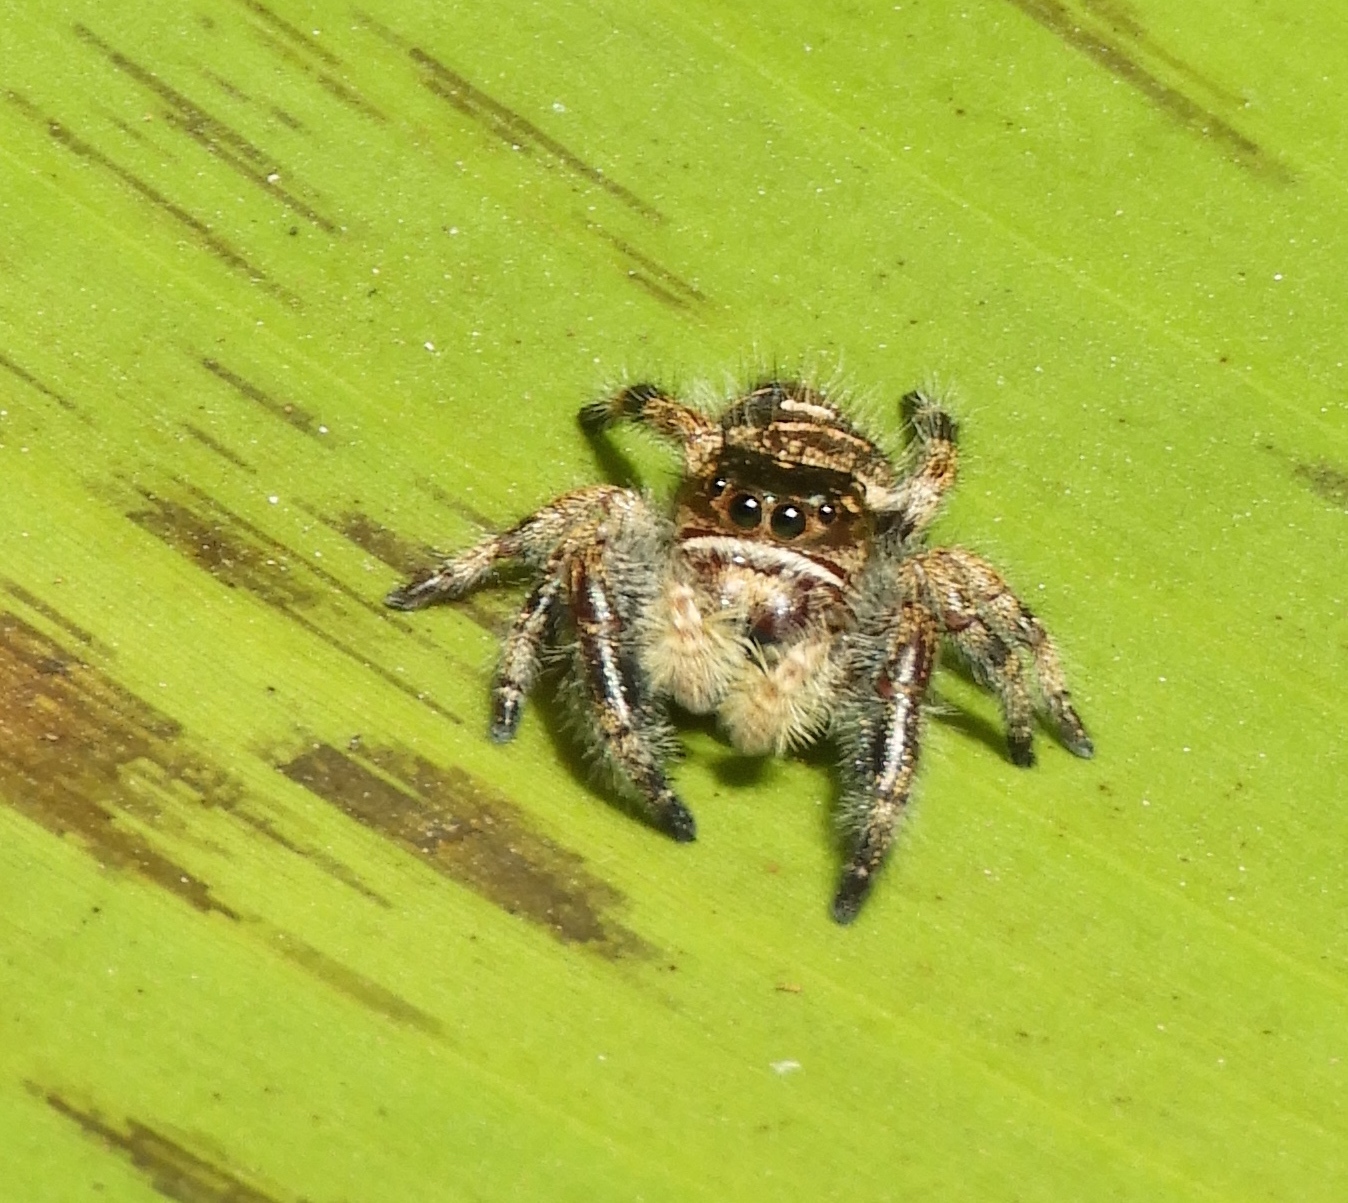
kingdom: Animalia
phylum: Arthropoda
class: Arachnida
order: Araneae
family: Salticidae
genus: Phidippus
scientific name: Phidippus maddisoni
